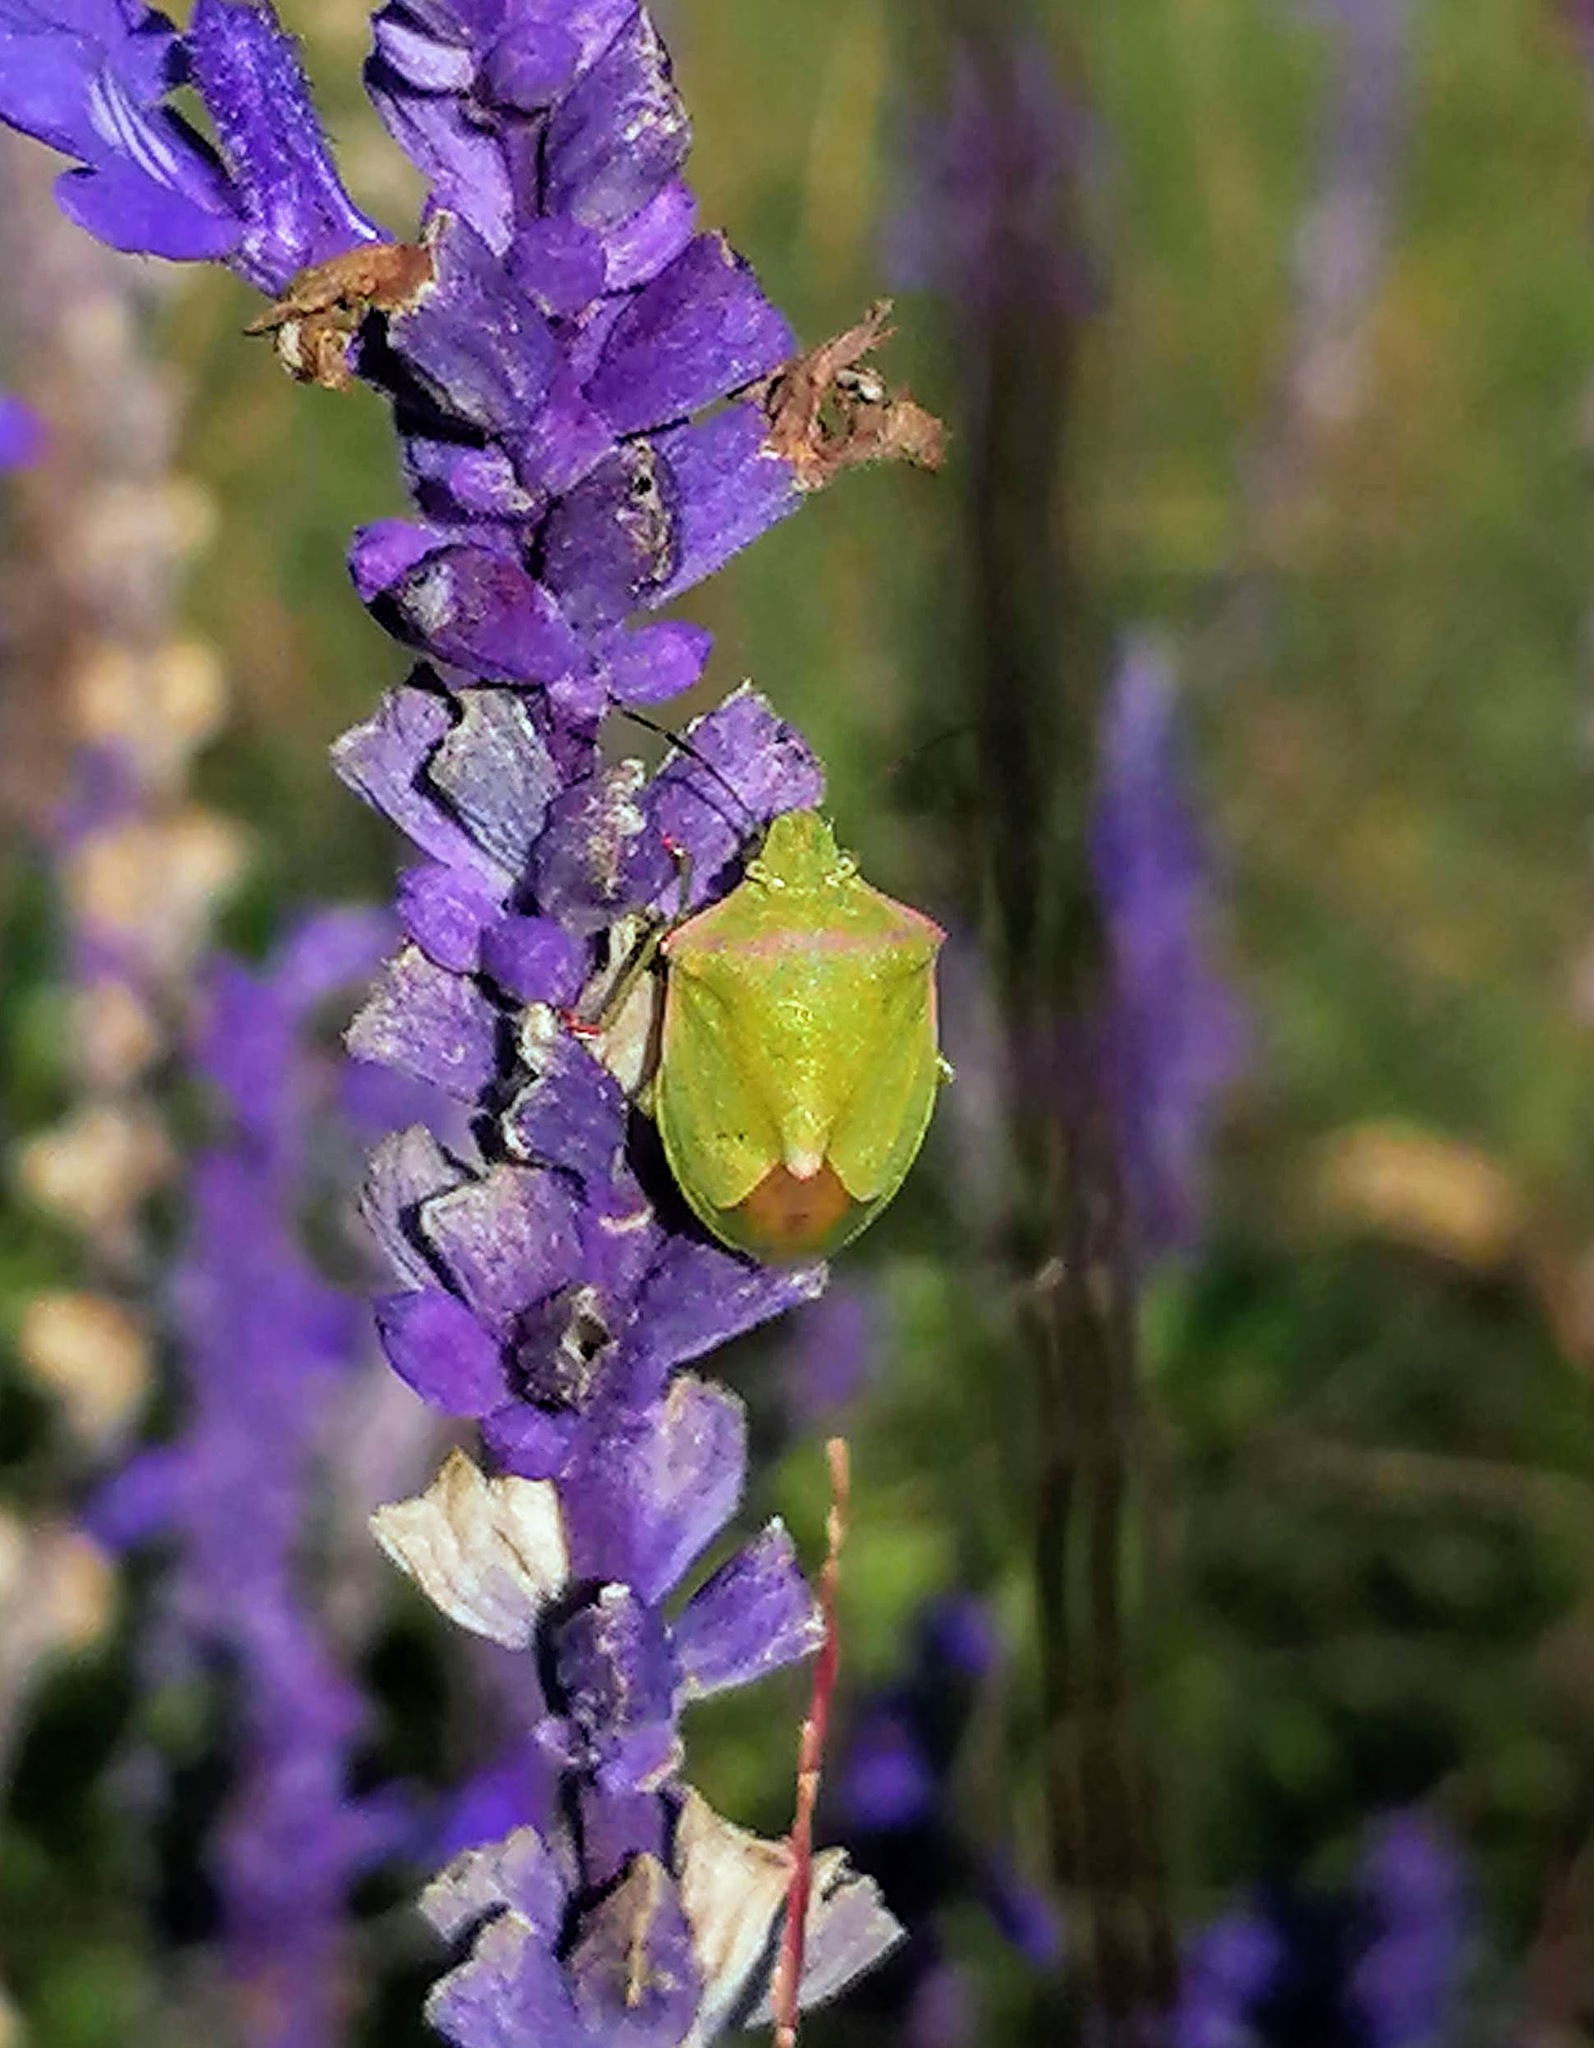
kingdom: Animalia
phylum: Arthropoda
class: Insecta
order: Hemiptera
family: Pentatomidae
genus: Thyanta
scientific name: Thyanta custator
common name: Stink bug
